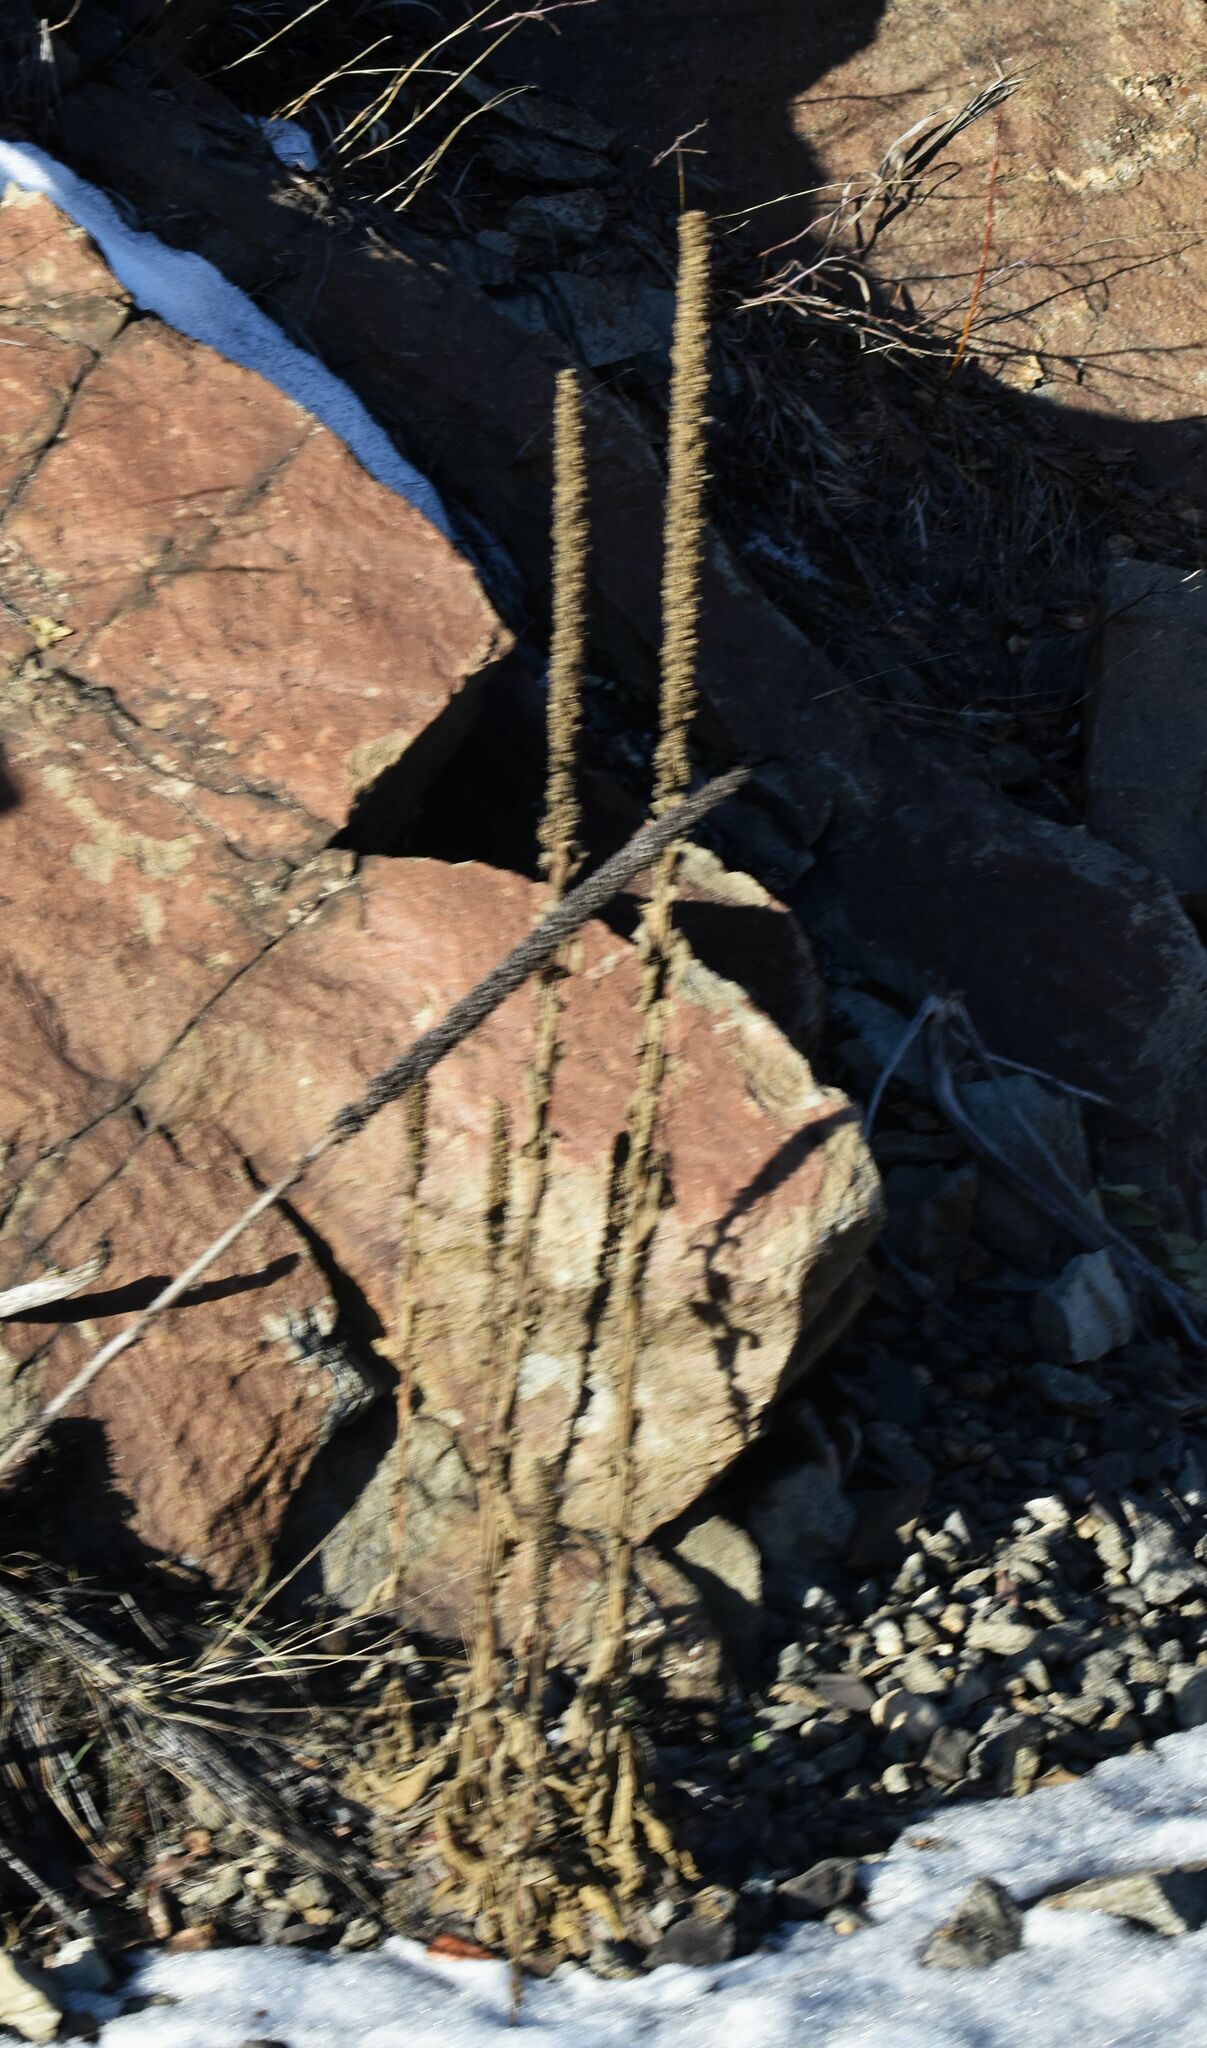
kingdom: Plantae
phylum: Tracheophyta
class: Magnoliopsida
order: Lamiales
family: Scrophulariaceae
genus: Verbascum
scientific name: Verbascum thapsus
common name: Common mullein
